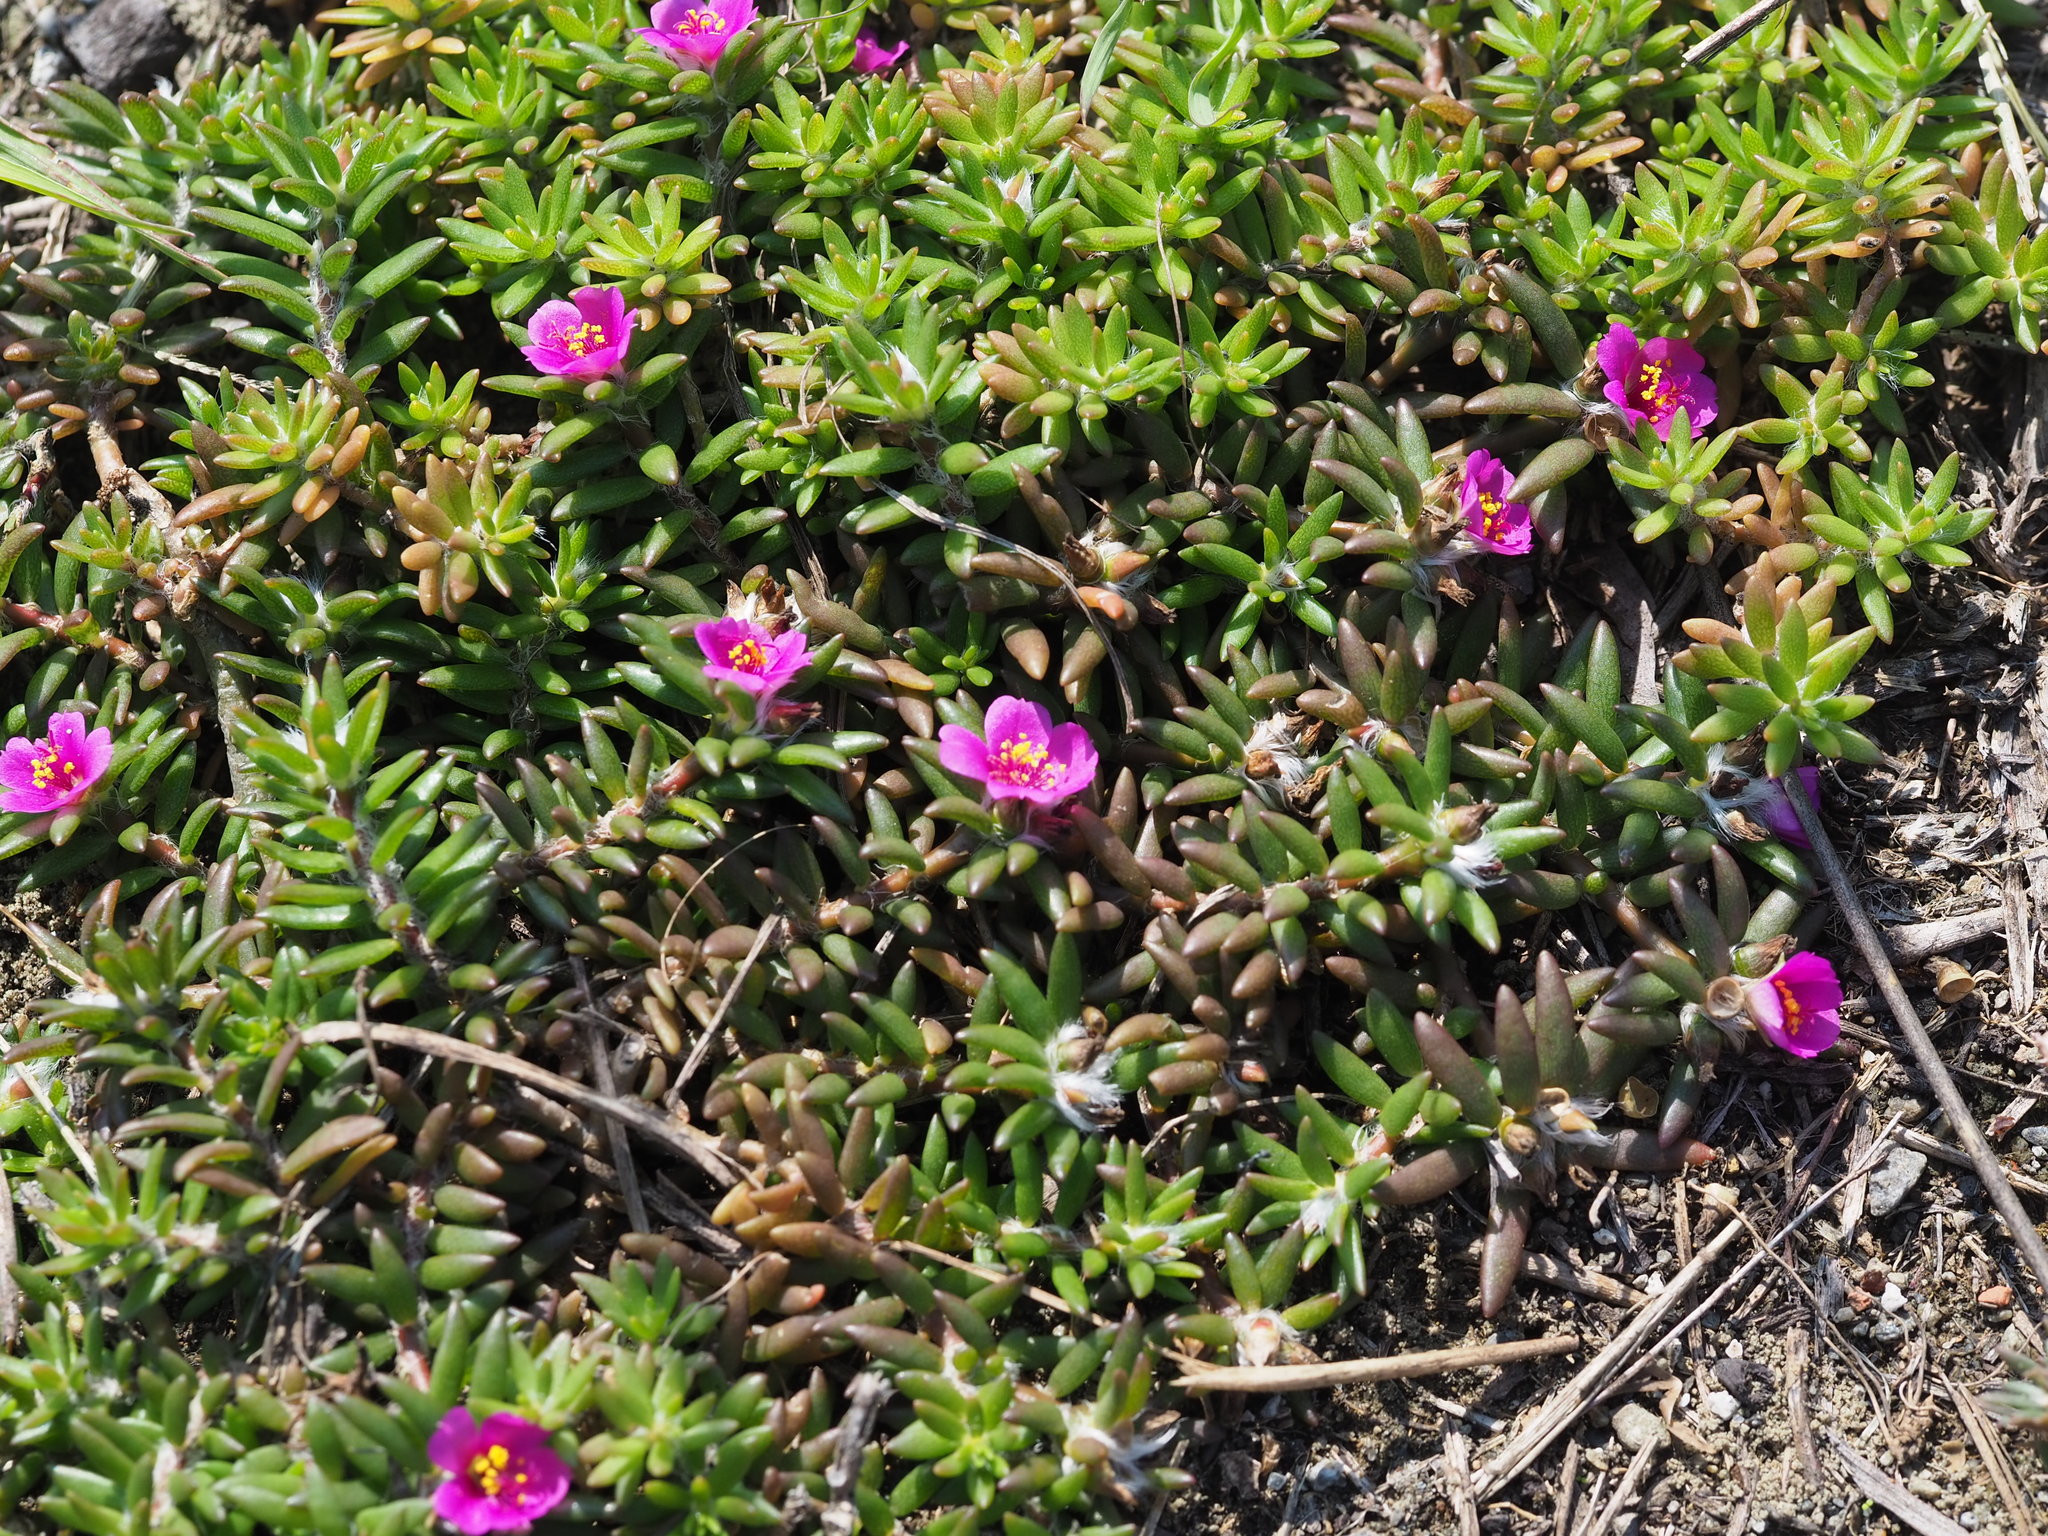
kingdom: Plantae
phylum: Tracheophyta
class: Magnoliopsida
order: Caryophyllales
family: Portulacaceae
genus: Portulaca
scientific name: Portulaca pilosa
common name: Kiss me quick
